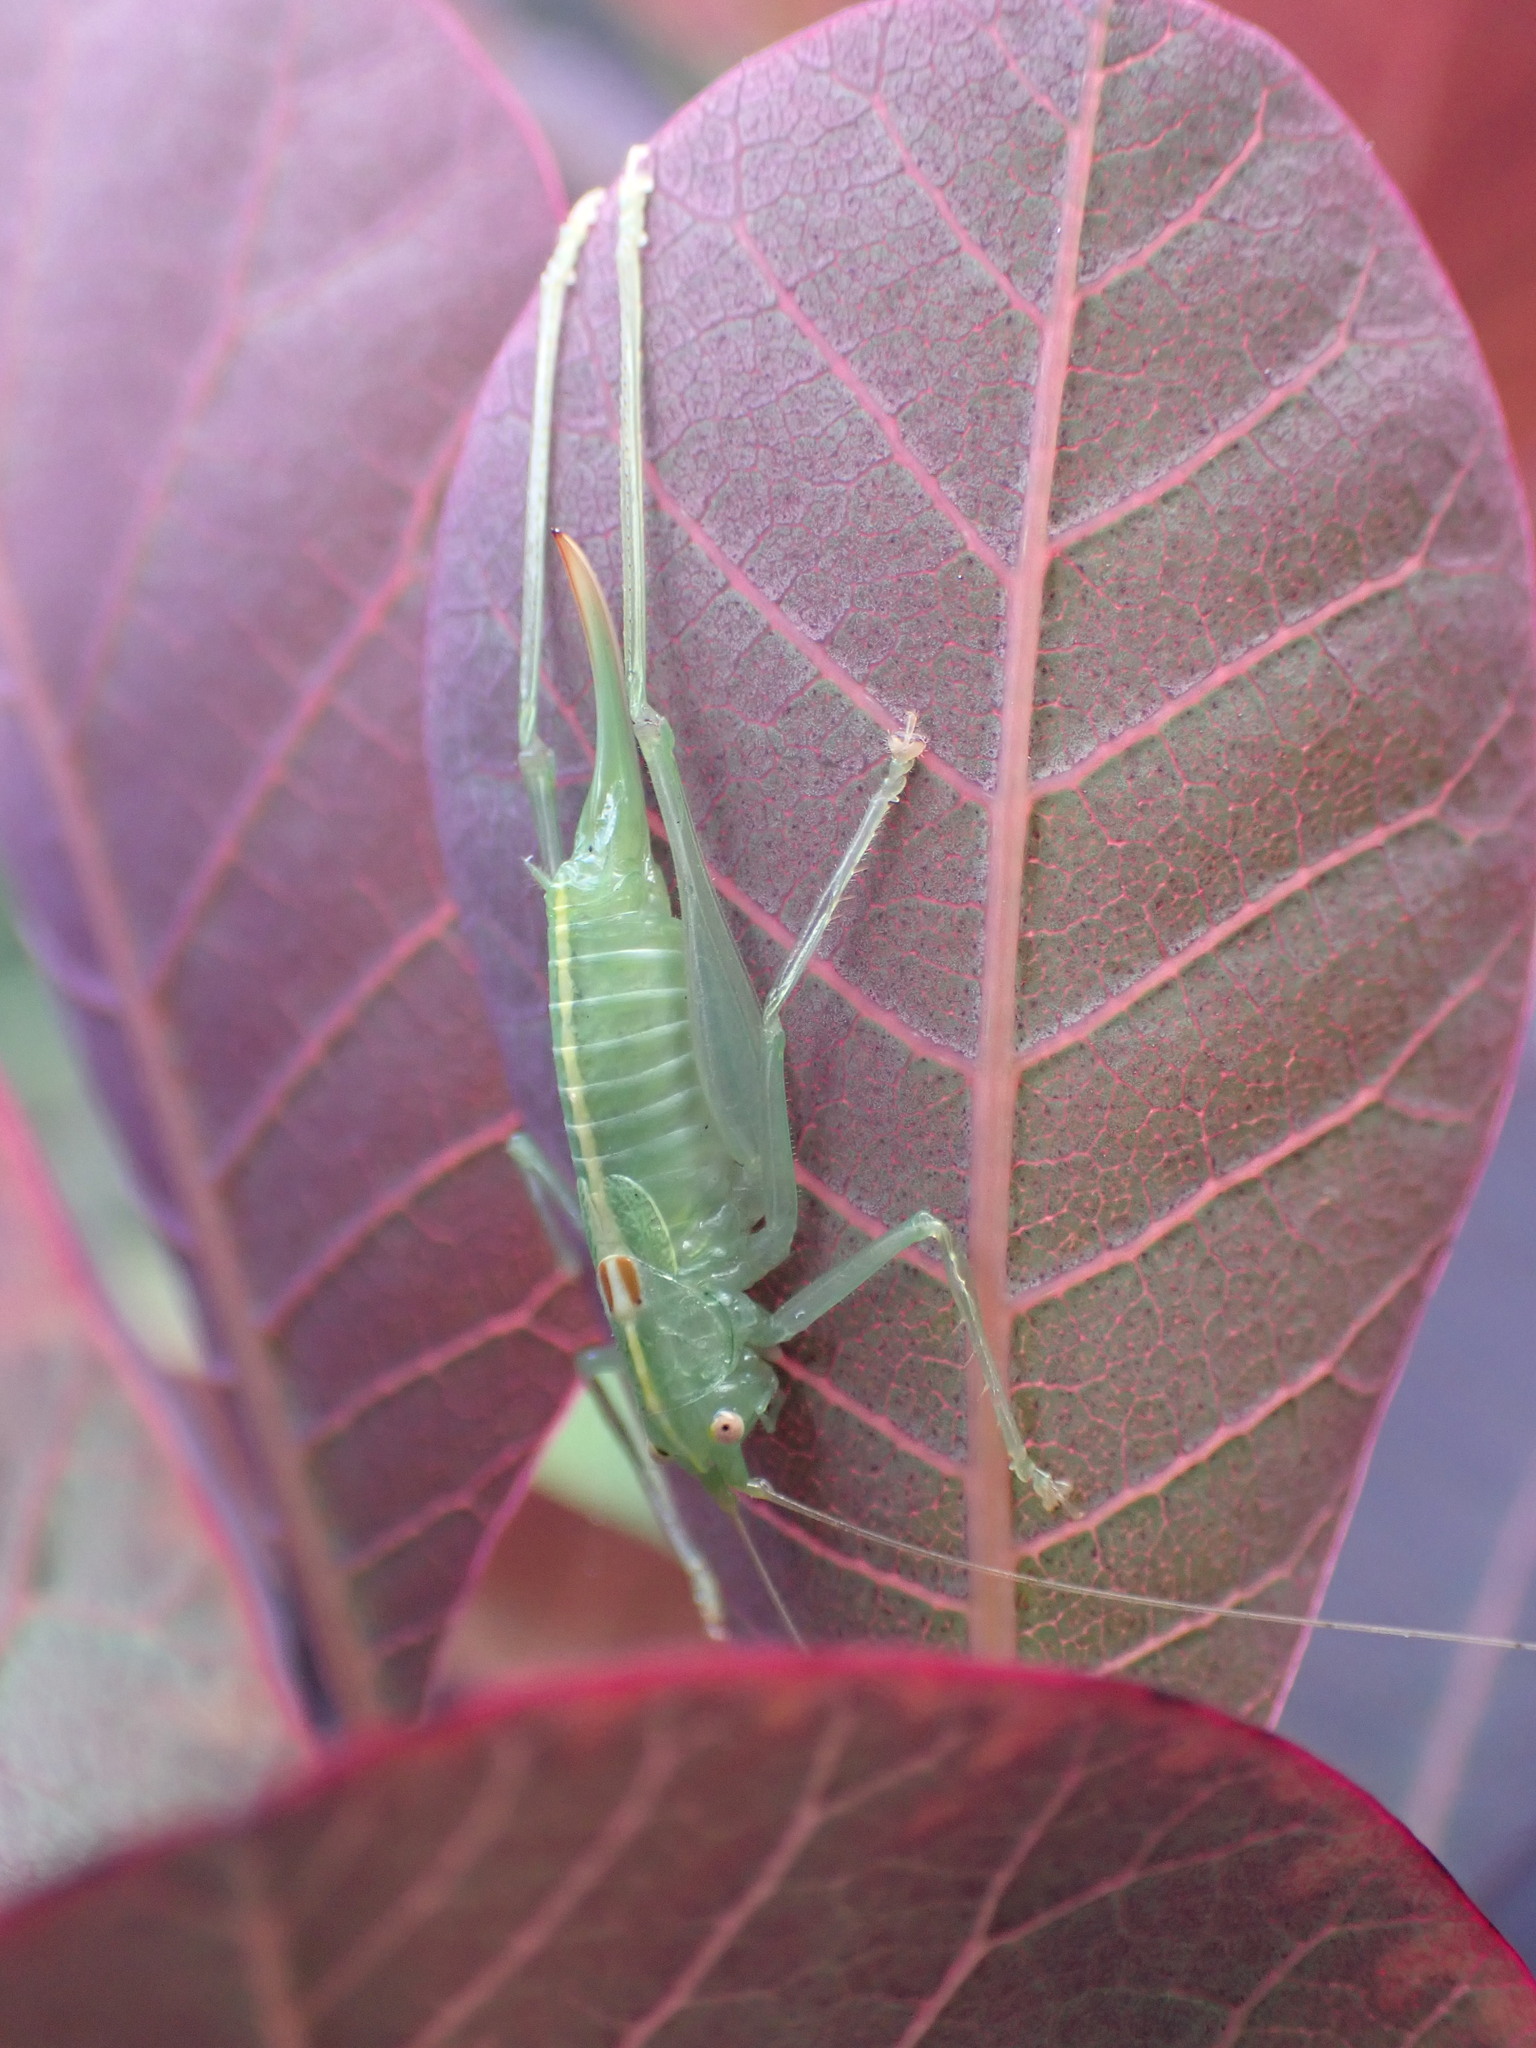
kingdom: Animalia
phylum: Arthropoda
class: Insecta
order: Orthoptera
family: Tettigoniidae
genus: Meconema
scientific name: Meconema meridionale
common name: Southern oak bush-cricket
